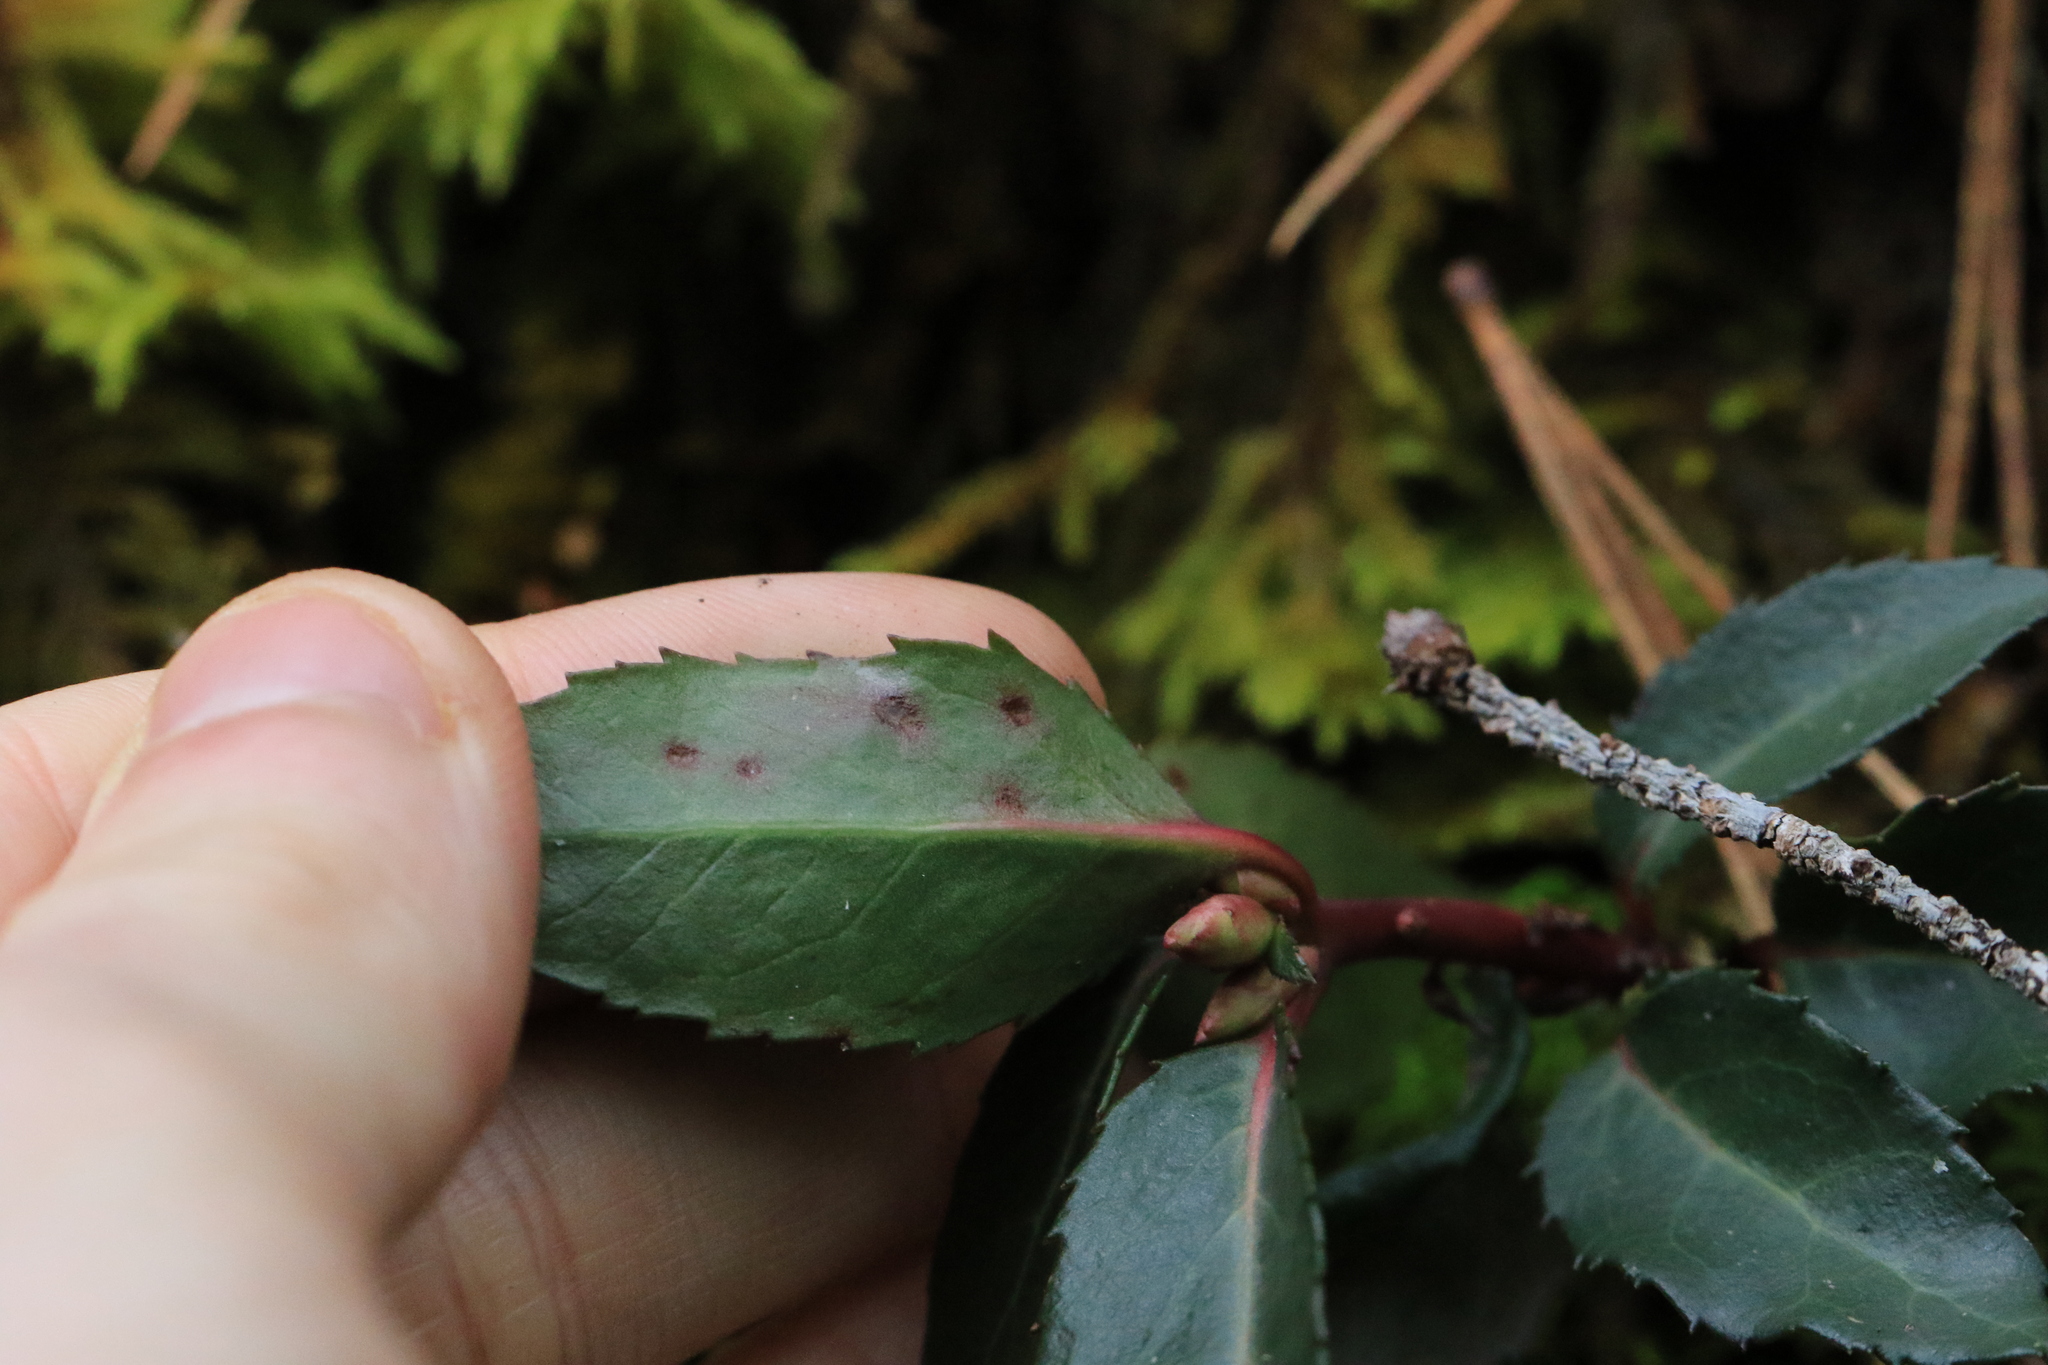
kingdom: Plantae
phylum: Tracheophyta
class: Magnoliopsida
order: Ericales
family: Ericaceae
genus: Chimaphila
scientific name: Chimaphila menziesii
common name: Menzies' pipsissewa
